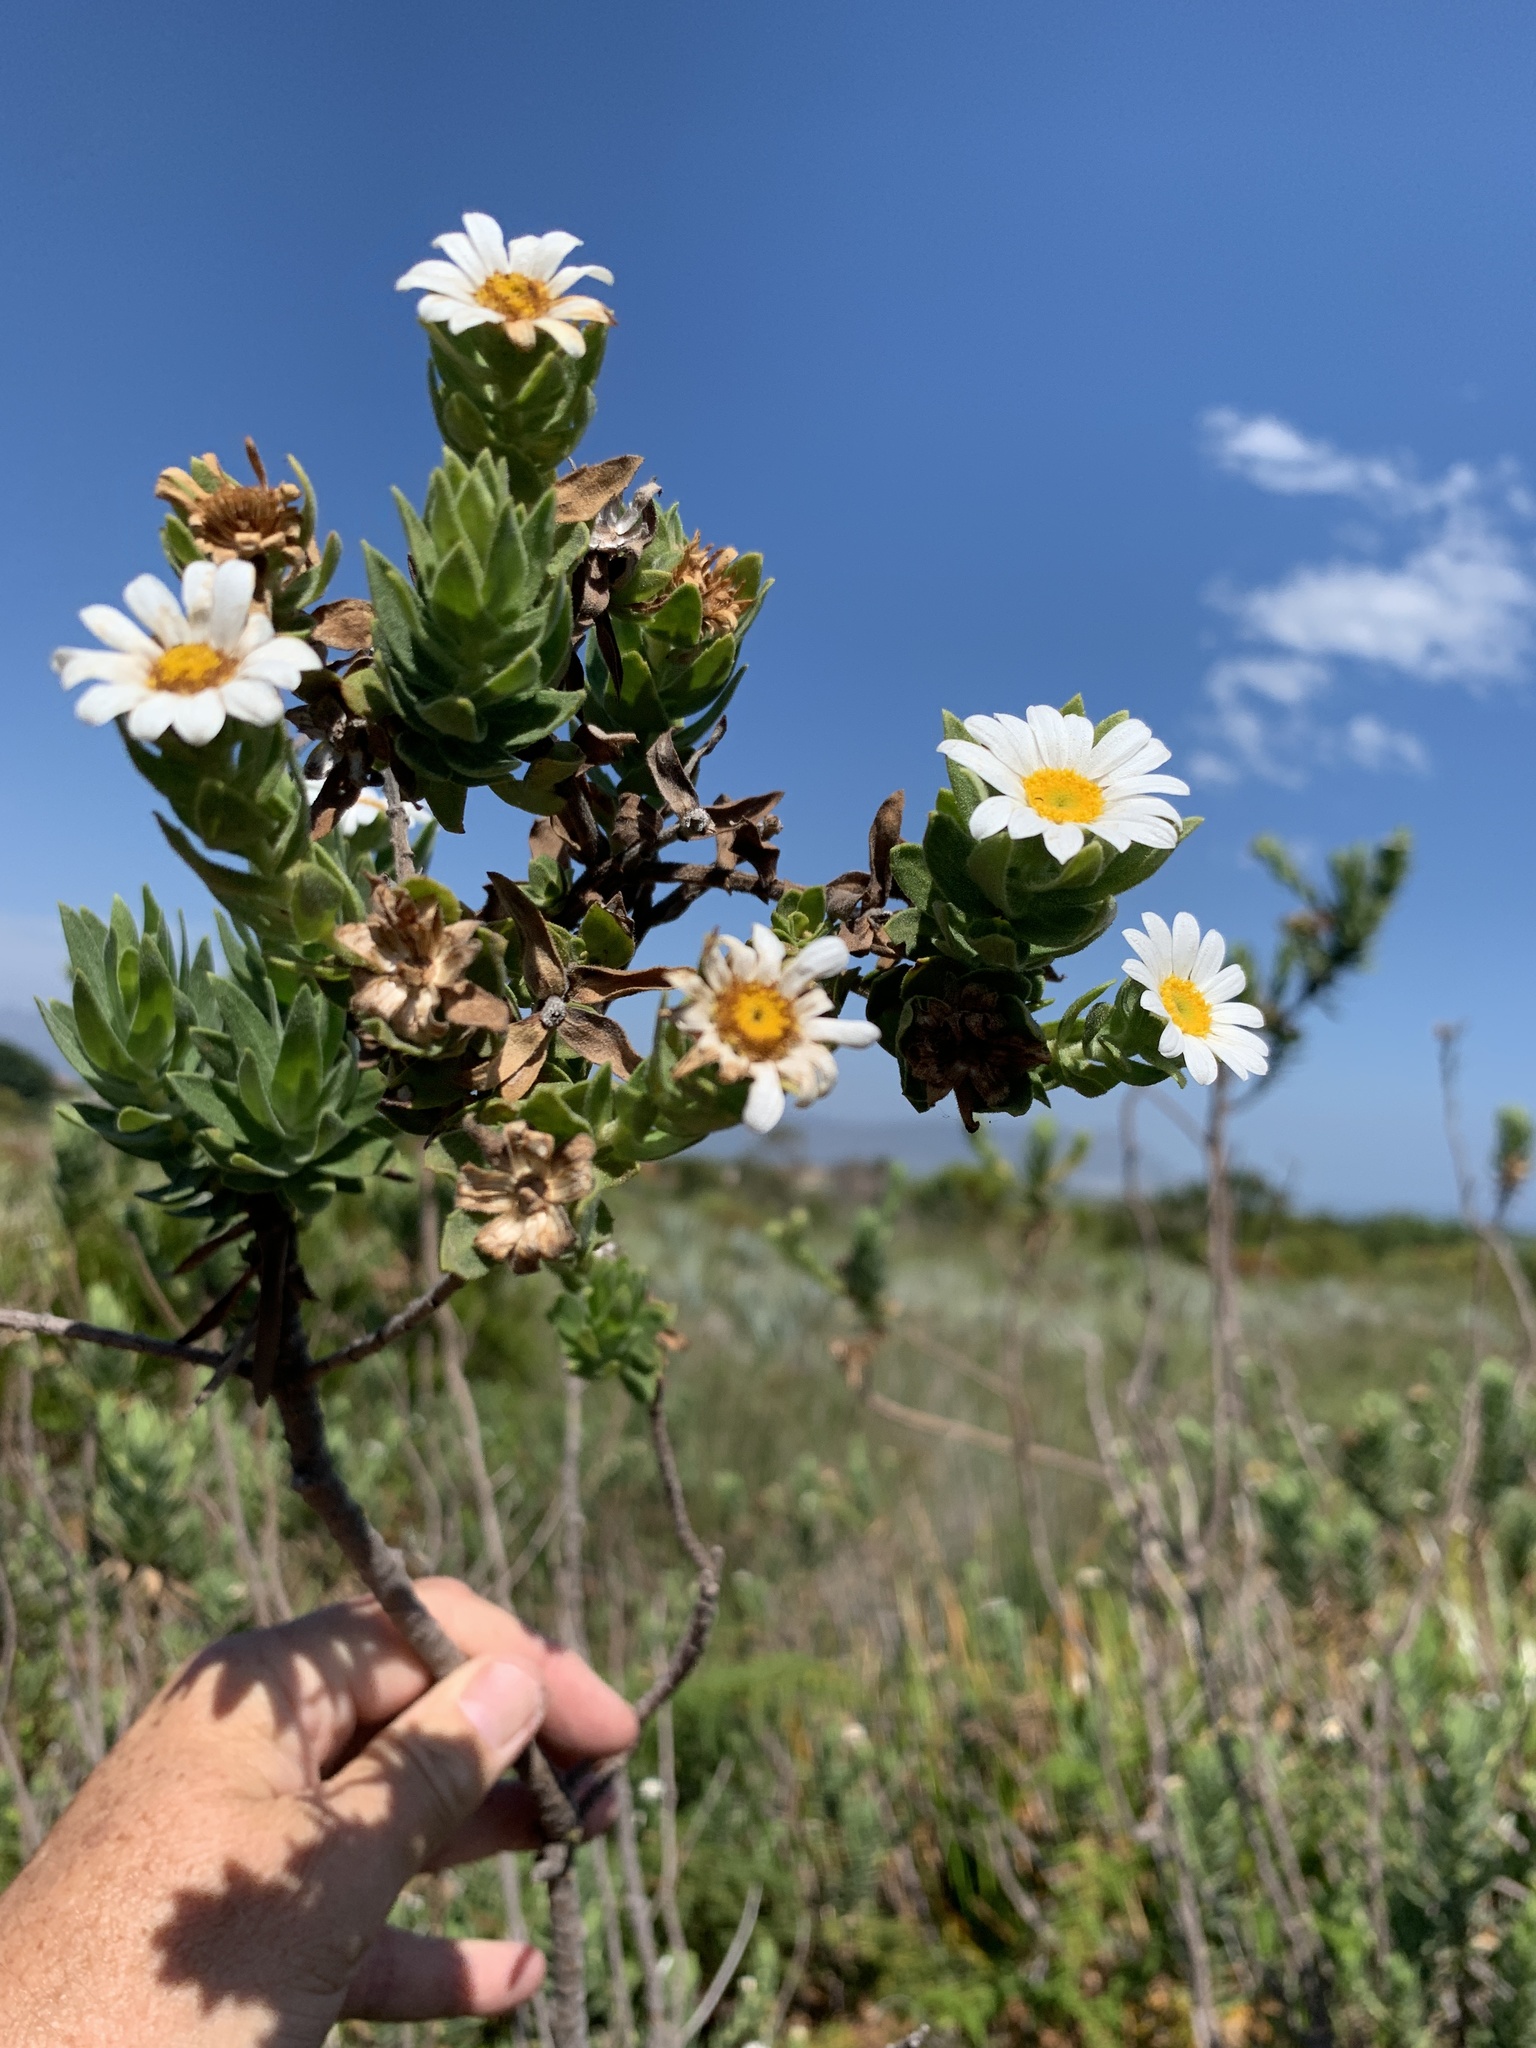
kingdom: Plantae
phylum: Tracheophyta
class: Magnoliopsida
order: Asterales
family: Asteraceae
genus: Osmitopsis
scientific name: Osmitopsis asteriscoides
